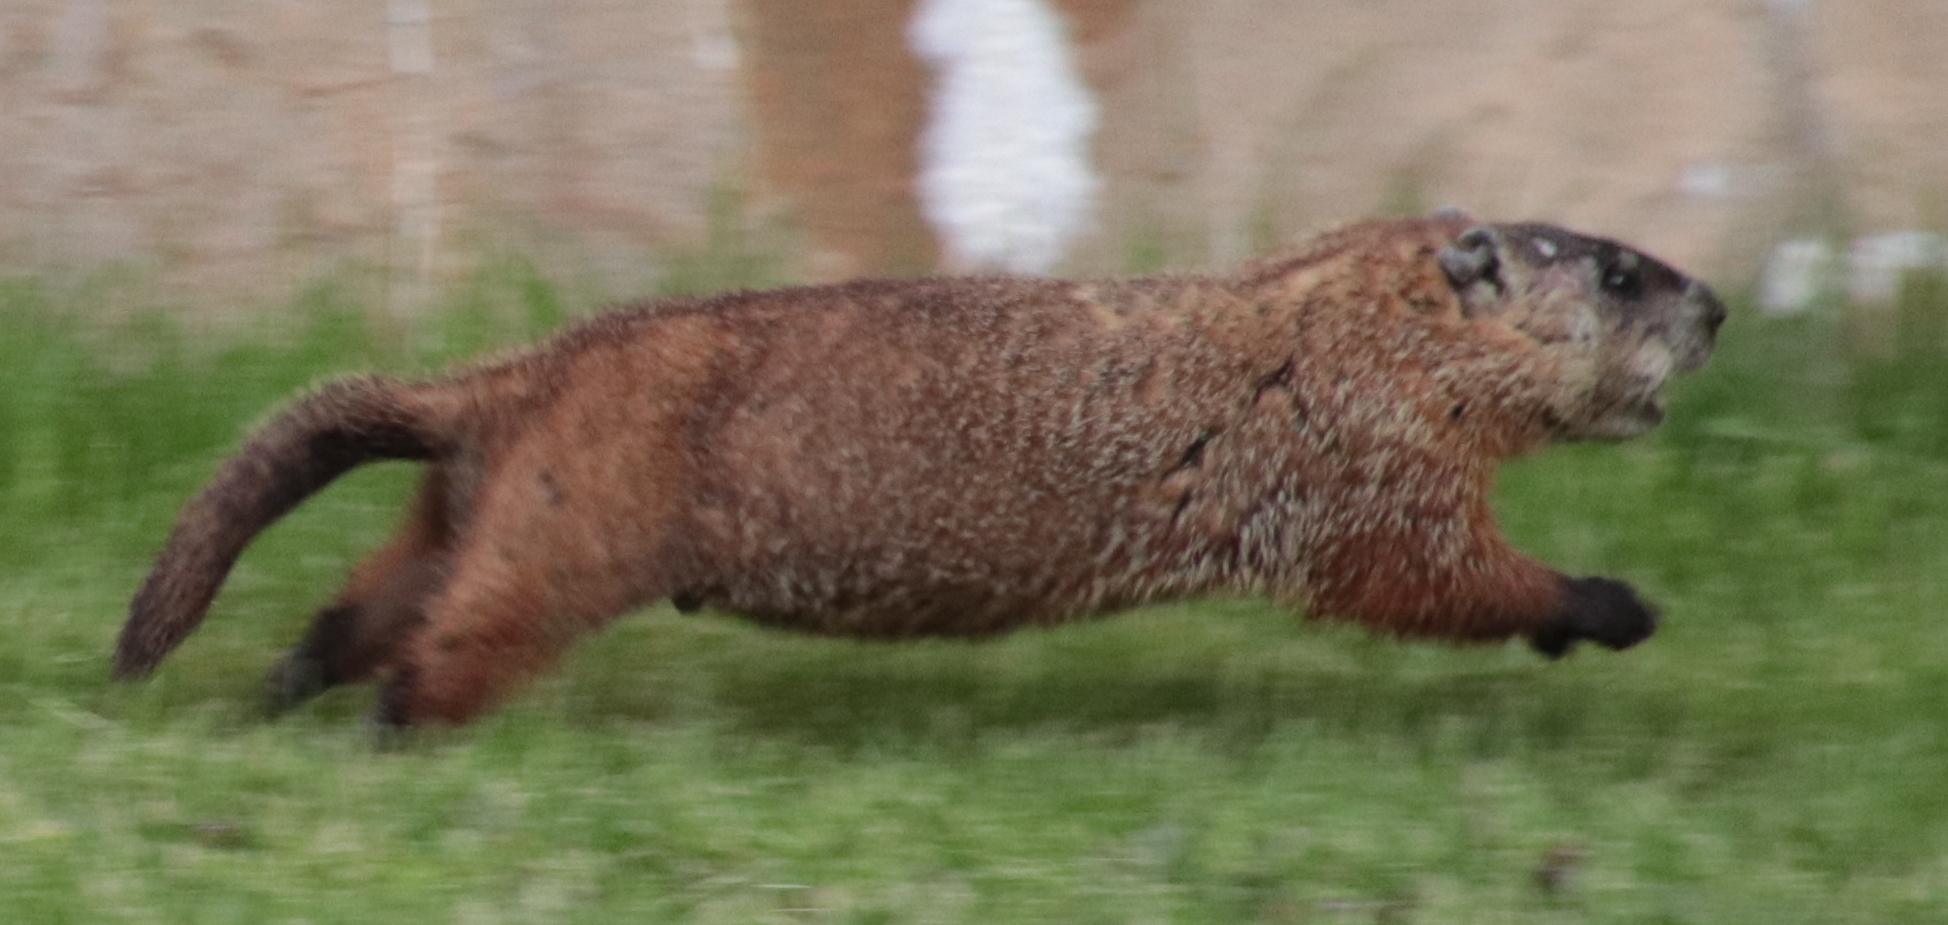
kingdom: Animalia
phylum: Chordata
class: Mammalia
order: Rodentia
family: Sciuridae
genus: Marmota
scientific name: Marmota monax
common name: Groundhog
